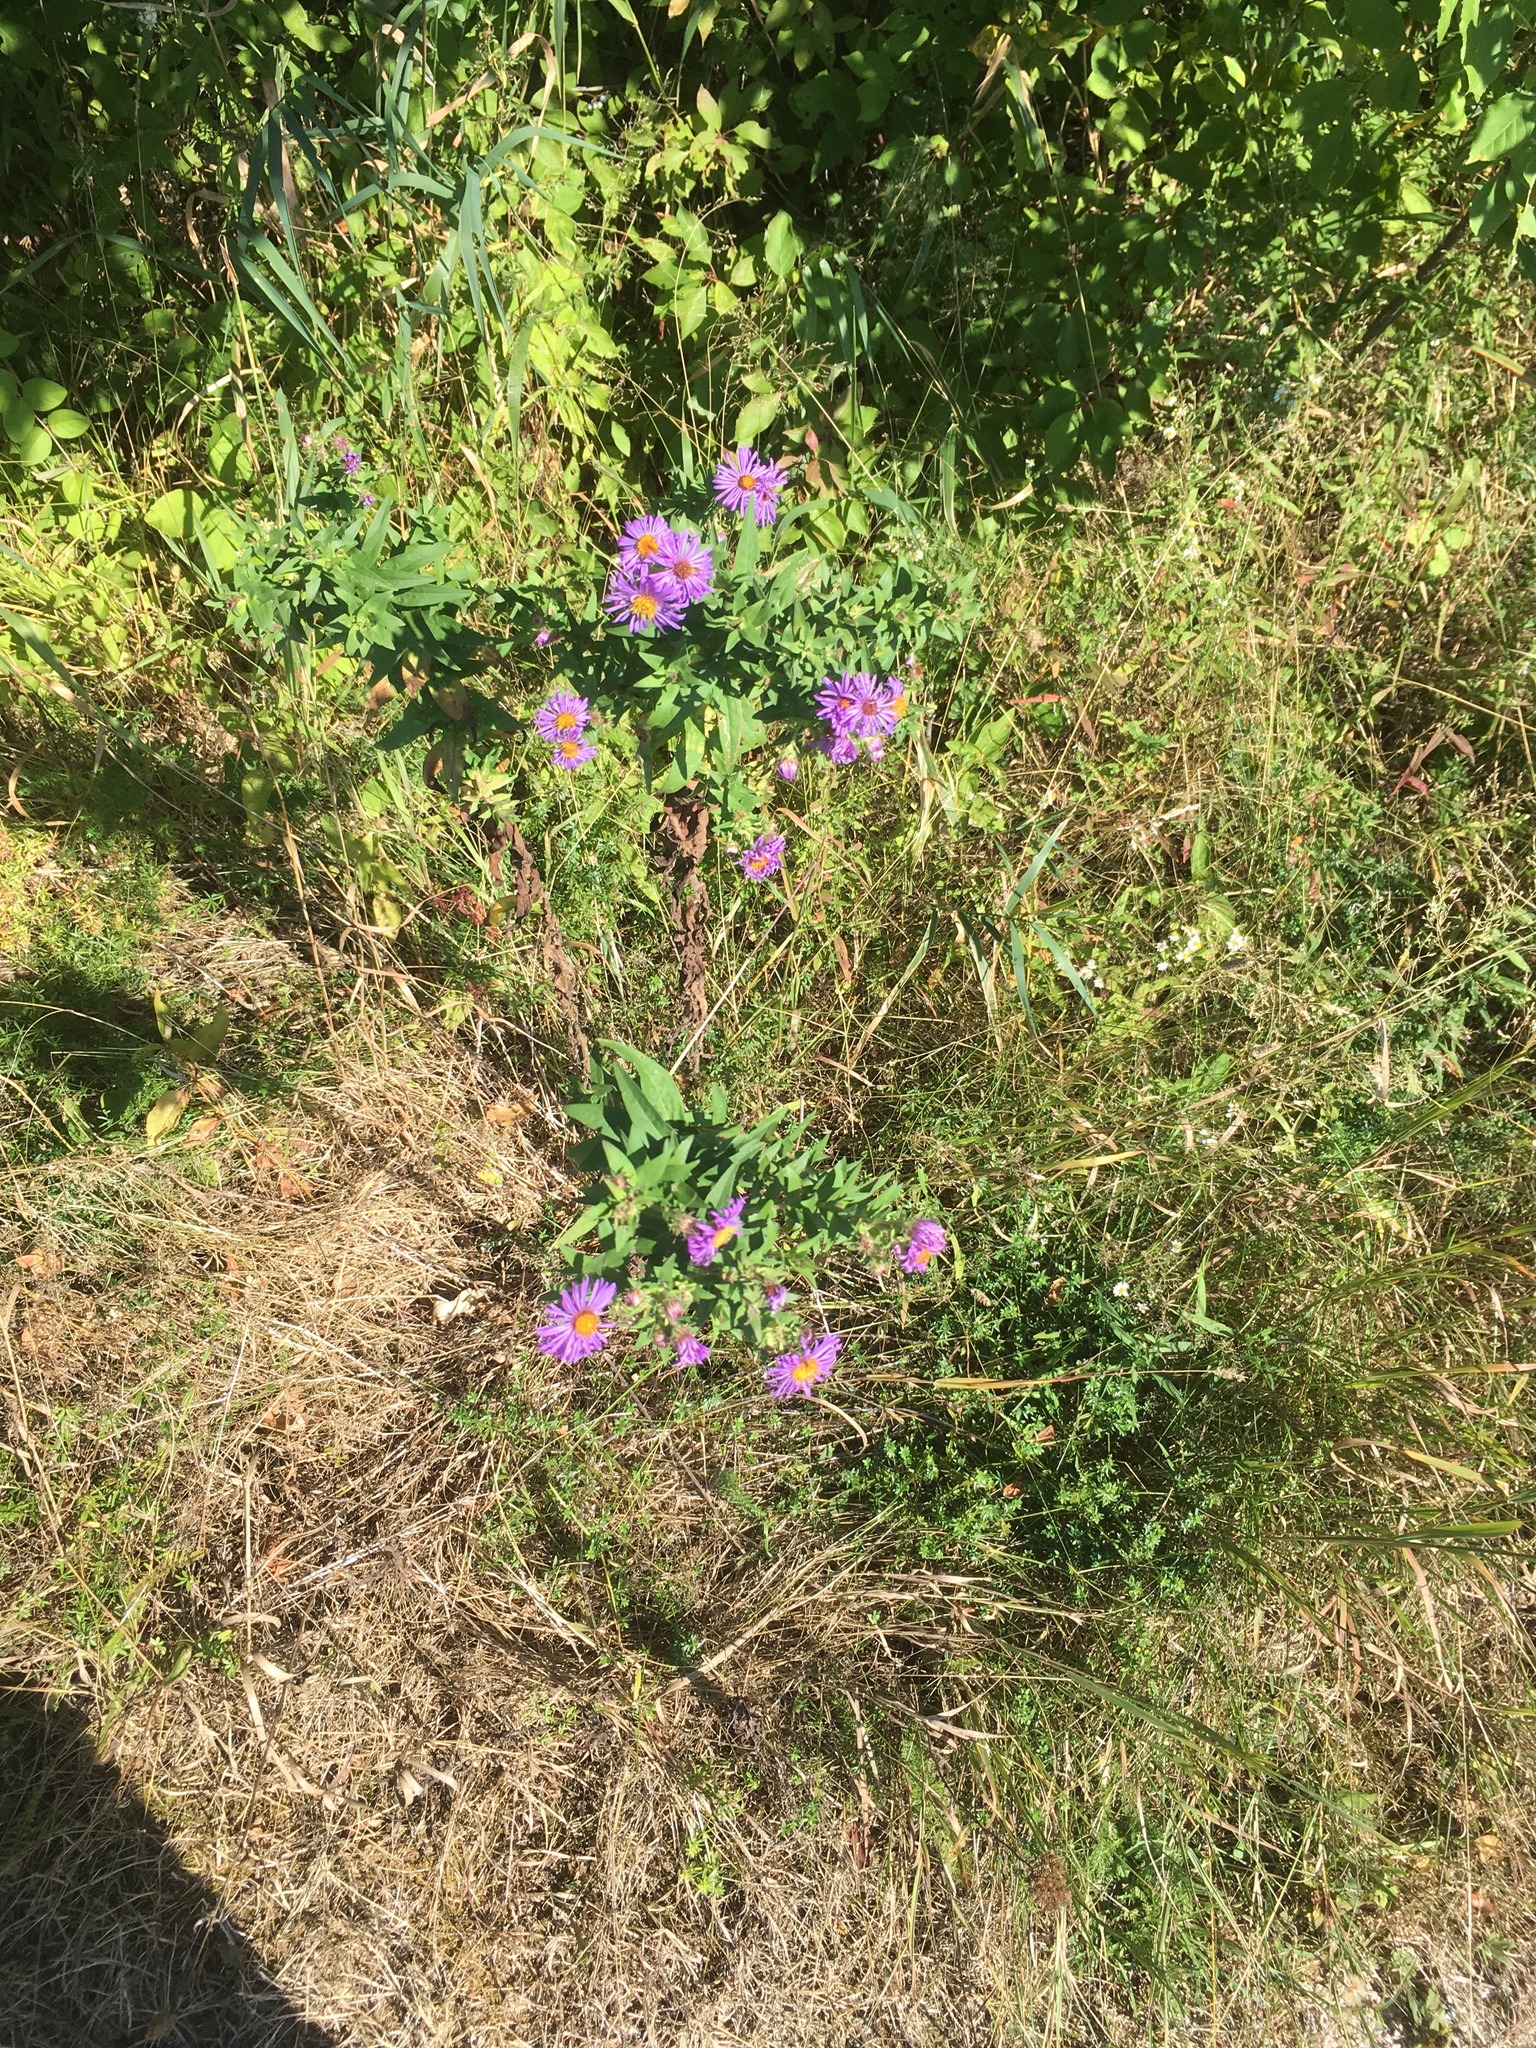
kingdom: Plantae
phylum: Tracheophyta
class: Magnoliopsida
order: Asterales
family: Asteraceae
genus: Symphyotrichum
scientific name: Symphyotrichum novae-angliae
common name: Michaelmas daisy
